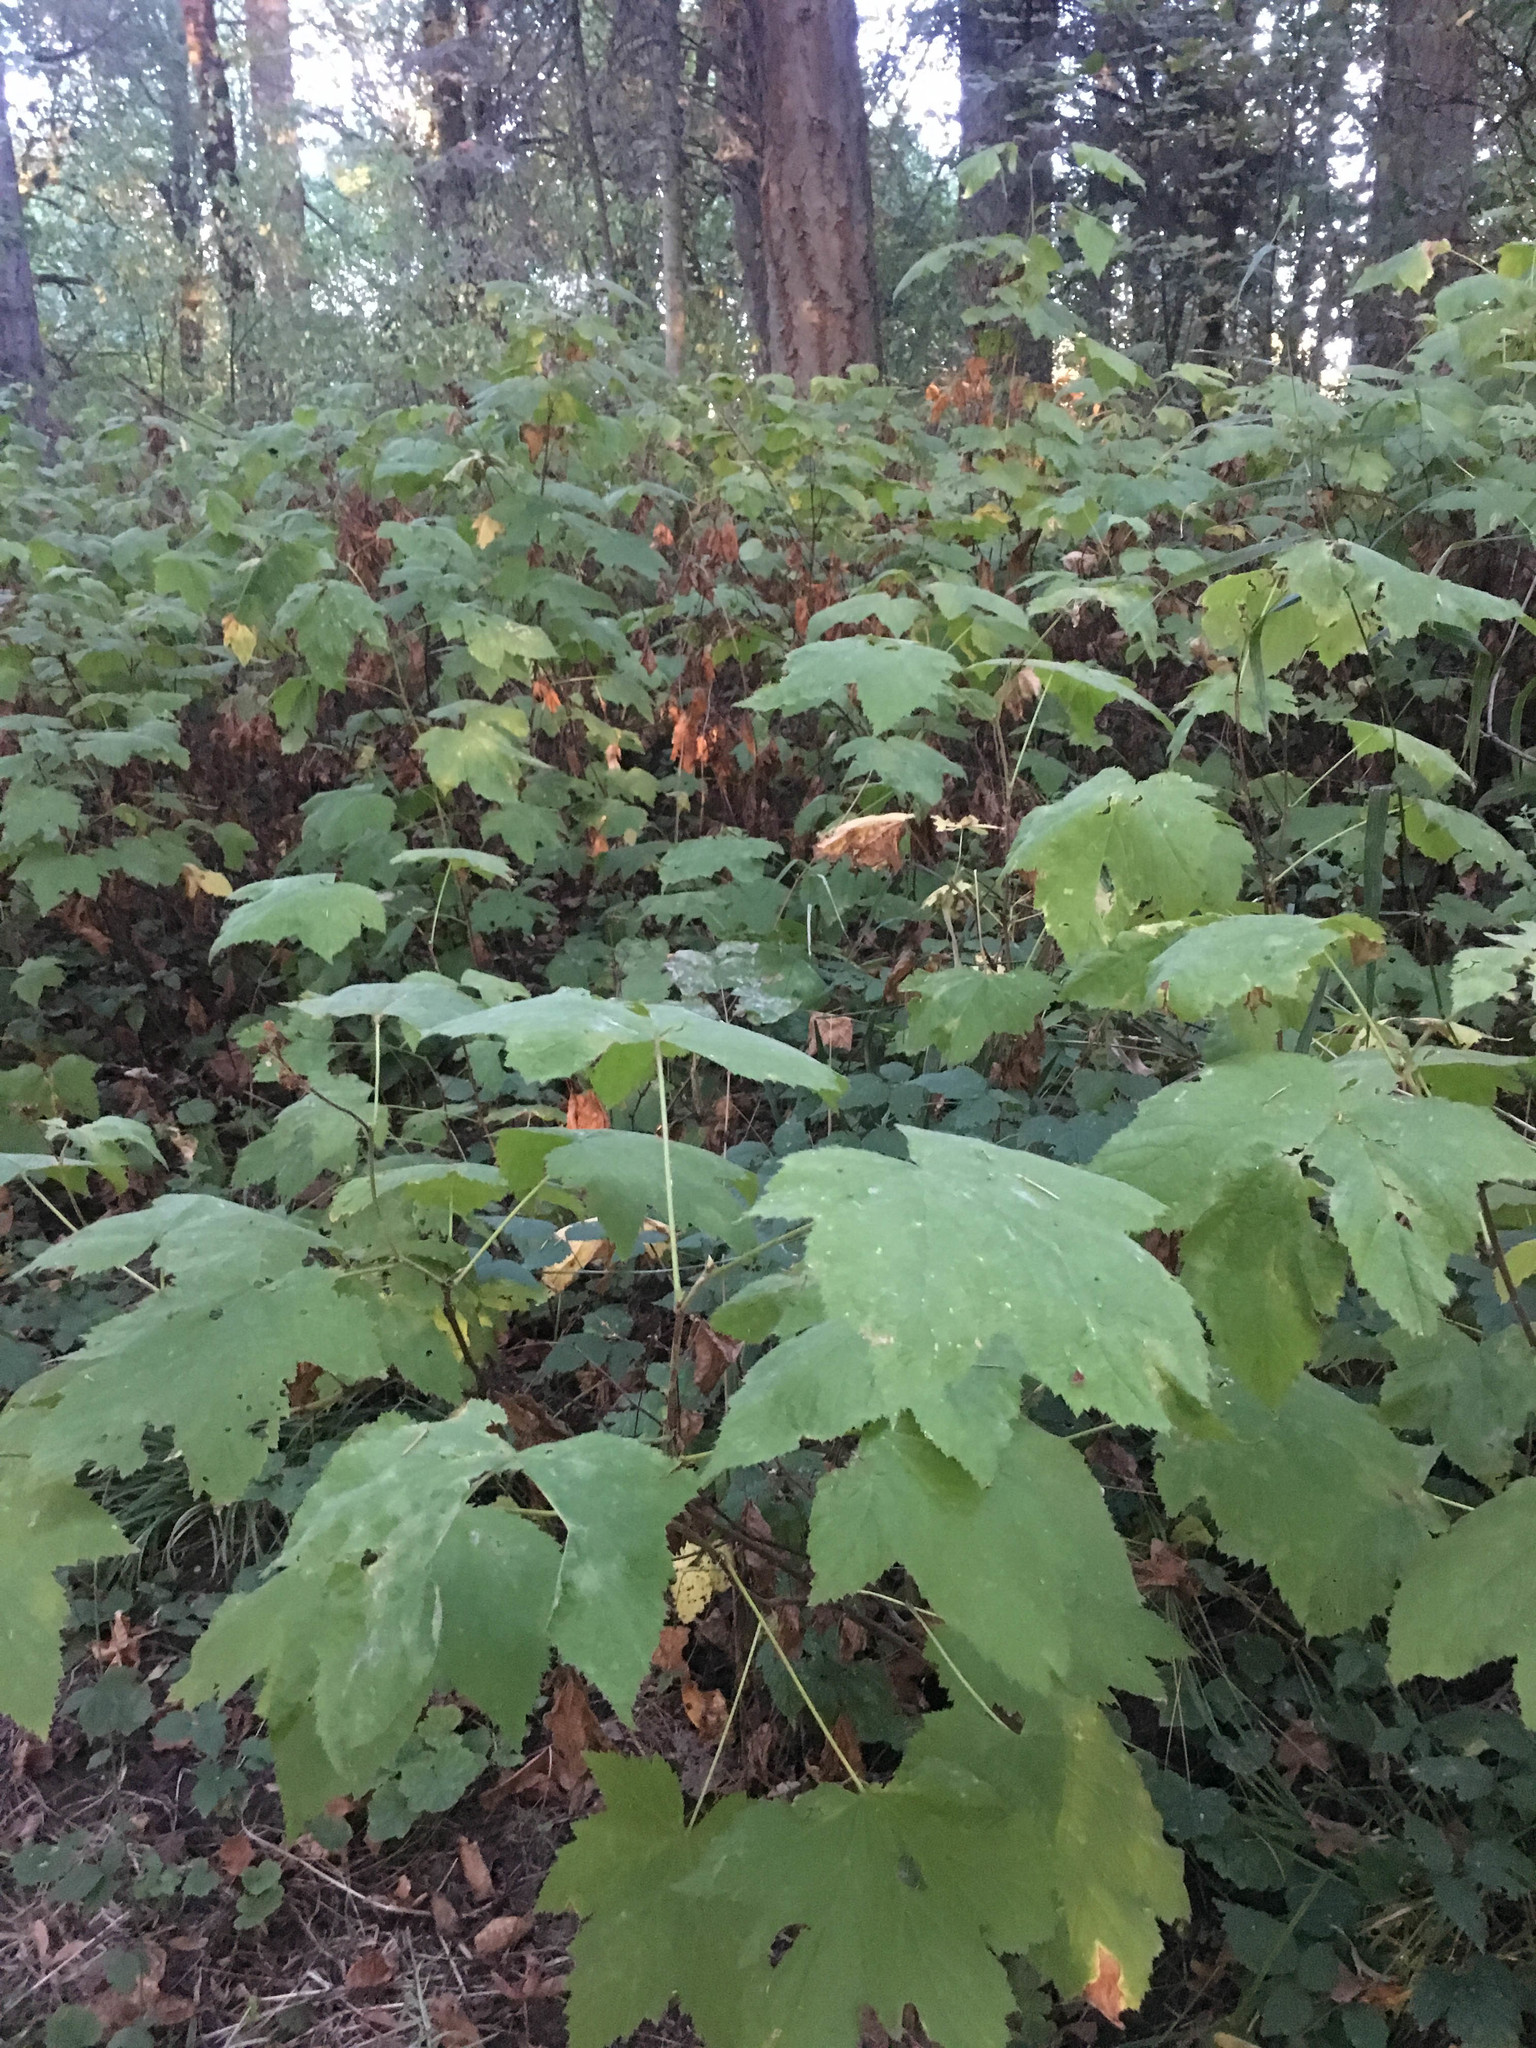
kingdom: Plantae
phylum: Tracheophyta
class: Magnoliopsida
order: Rosales
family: Rosaceae
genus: Rubus
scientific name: Rubus parviflorus
